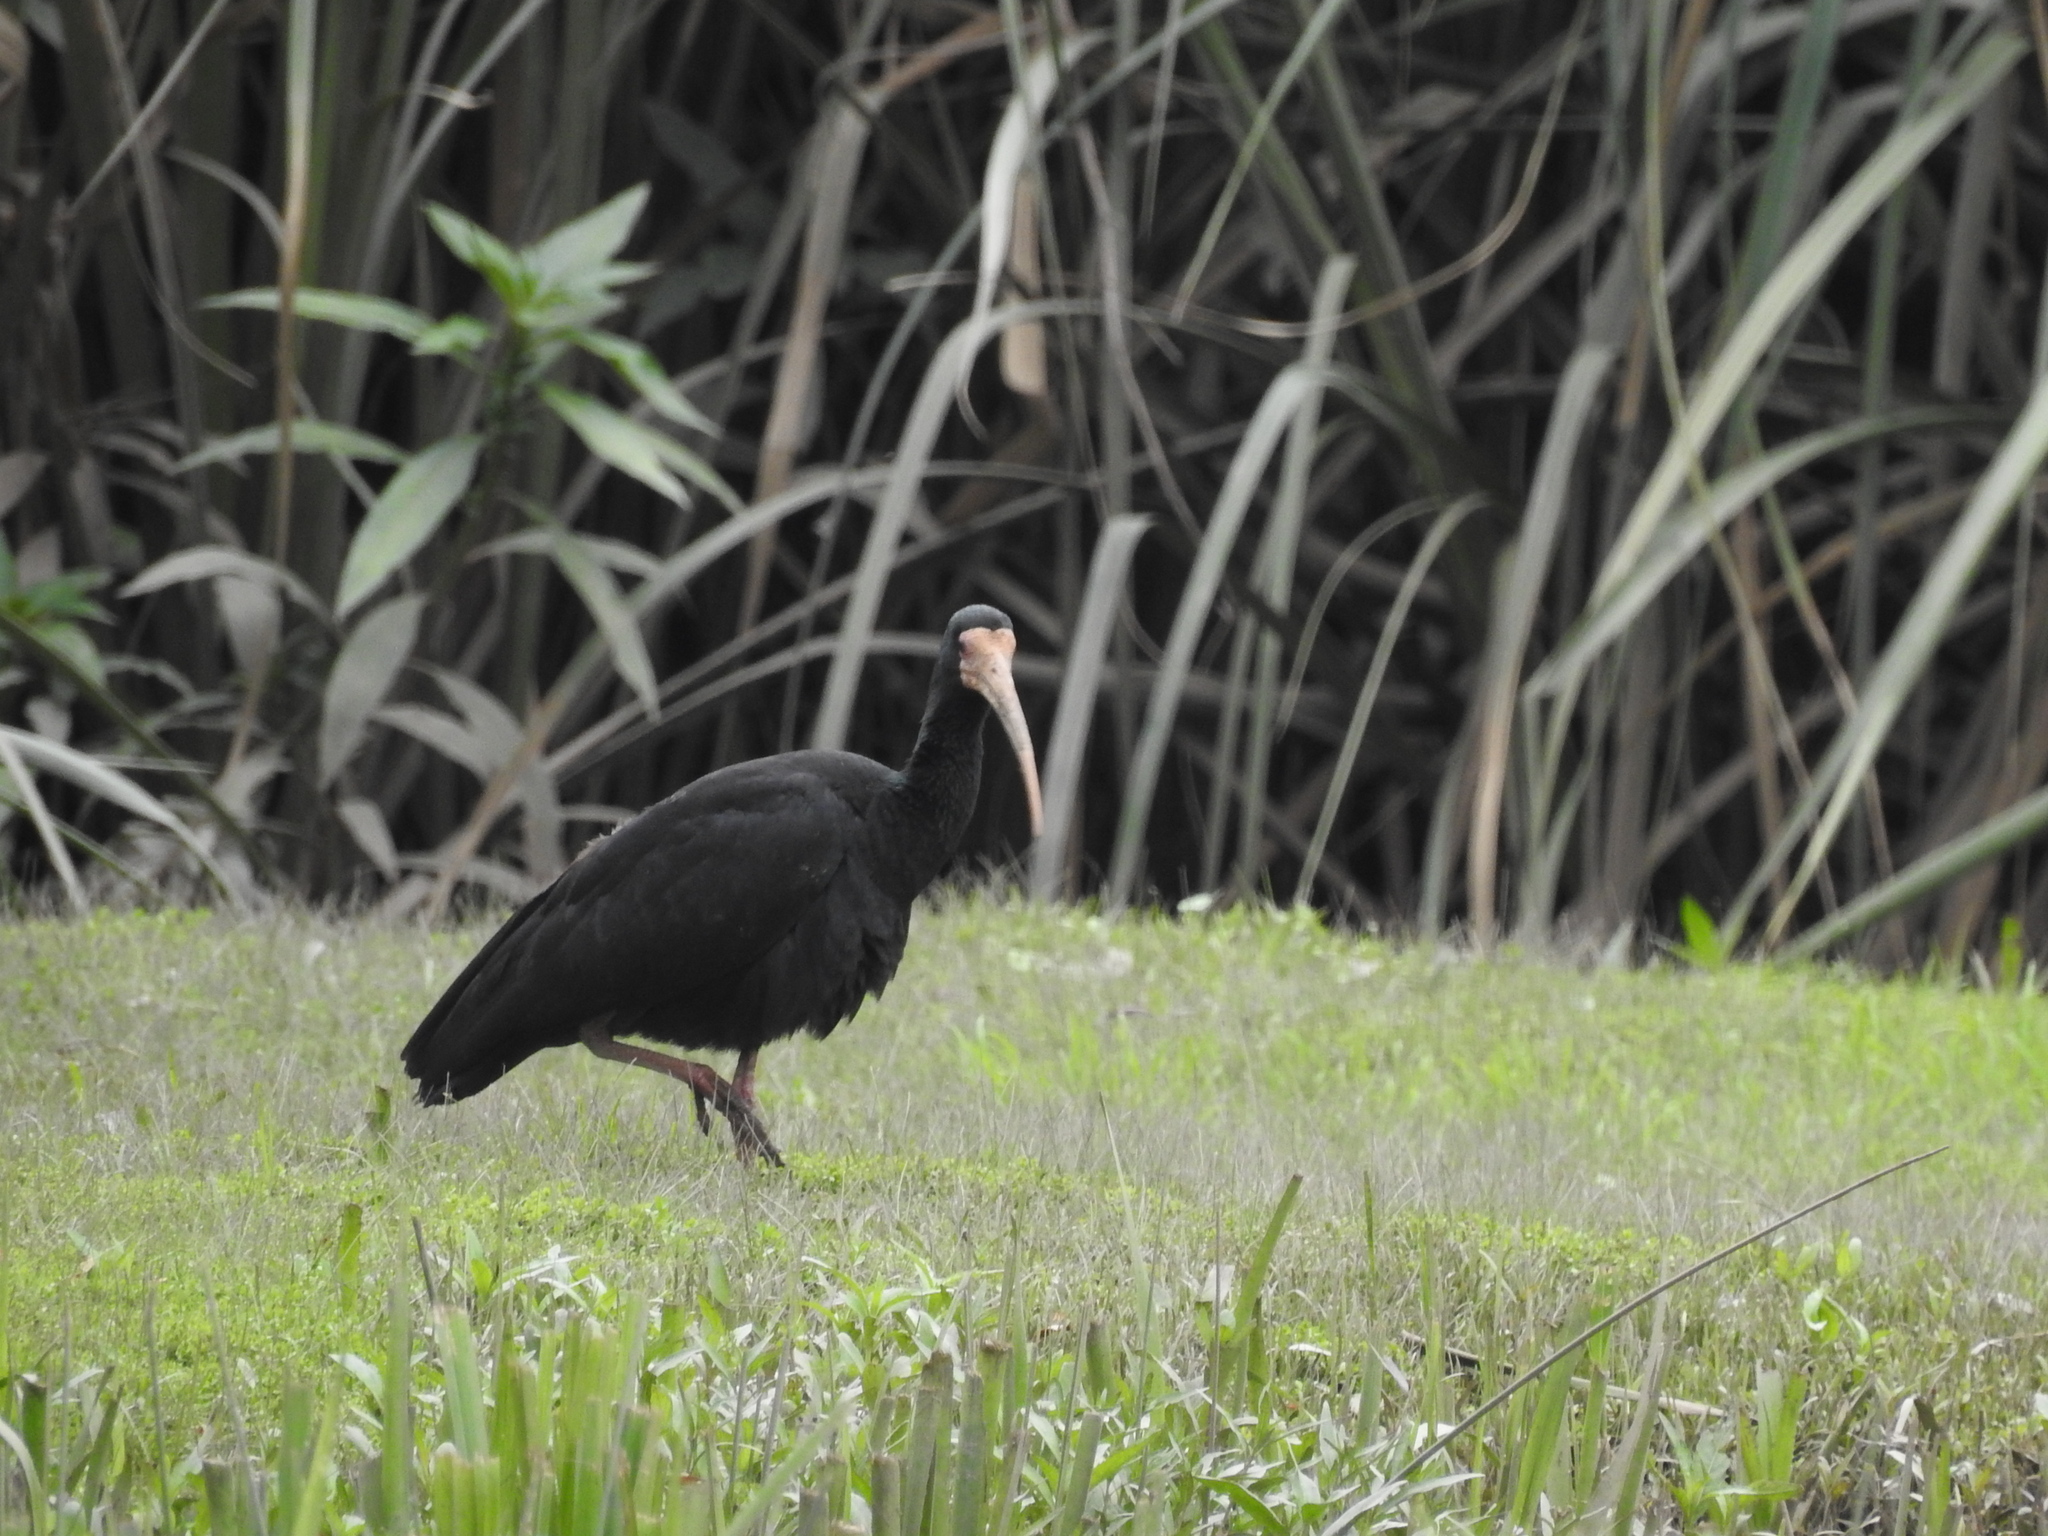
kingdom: Animalia
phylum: Chordata
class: Aves
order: Pelecaniformes
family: Threskiornithidae
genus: Phimosus
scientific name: Phimosus infuscatus
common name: Bare-faced ibis
